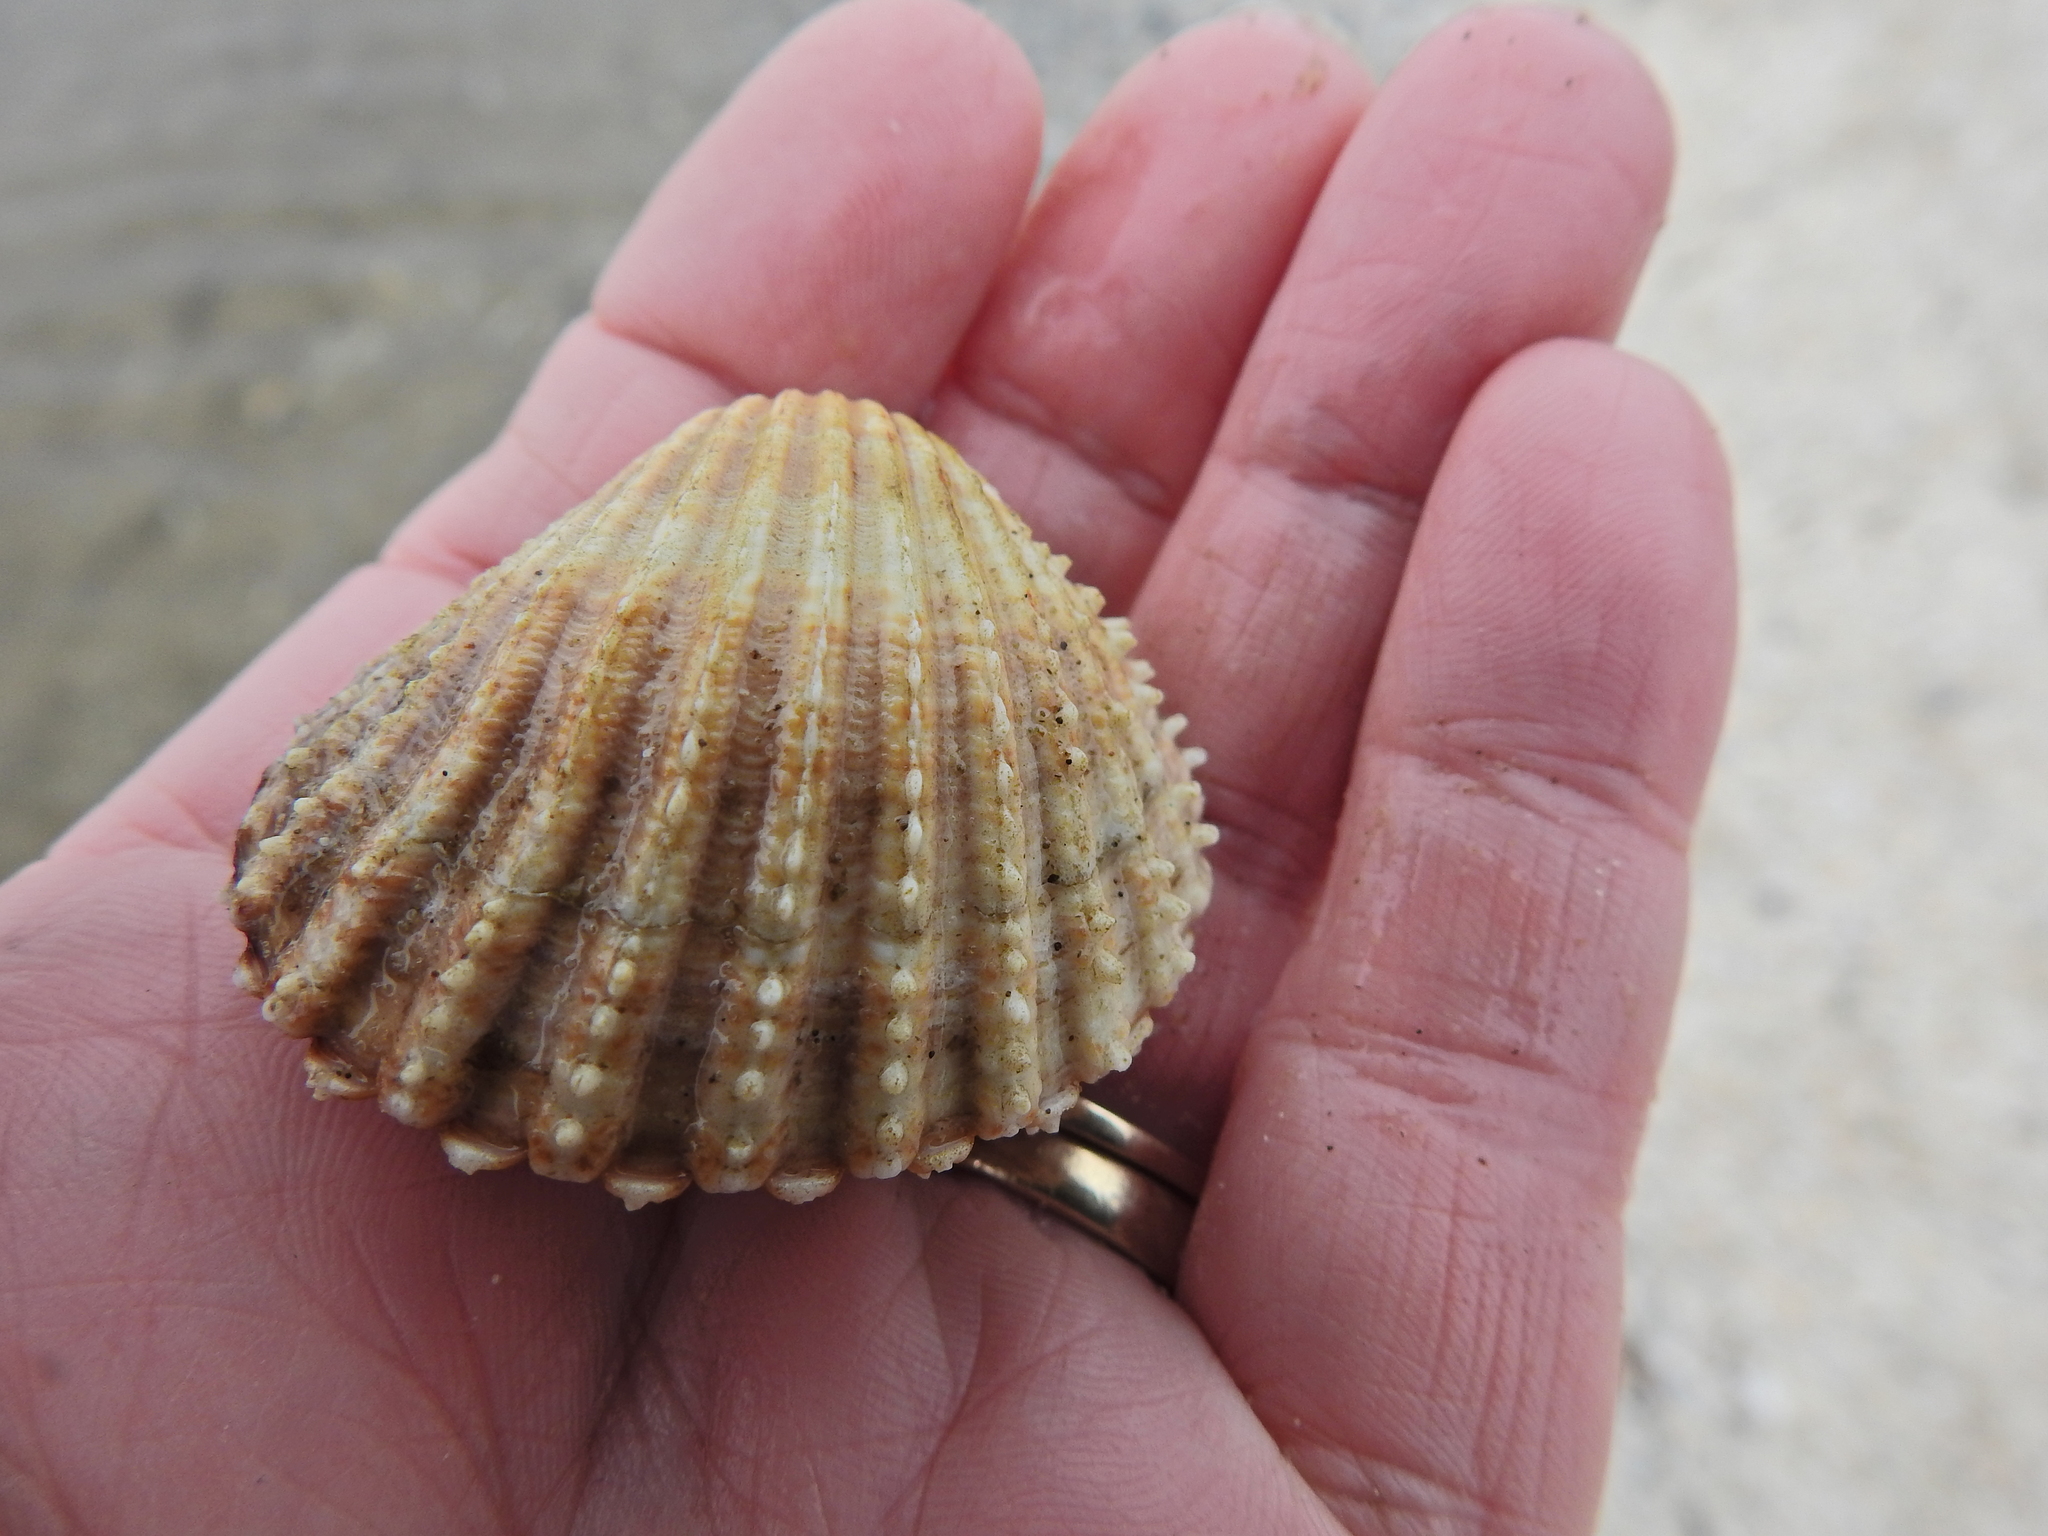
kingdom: Animalia
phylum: Mollusca
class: Bivalvia
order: Cardiida
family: Cardiidae
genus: Acanthocardia
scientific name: Acanthocardia echinata
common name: Prickly cockle
